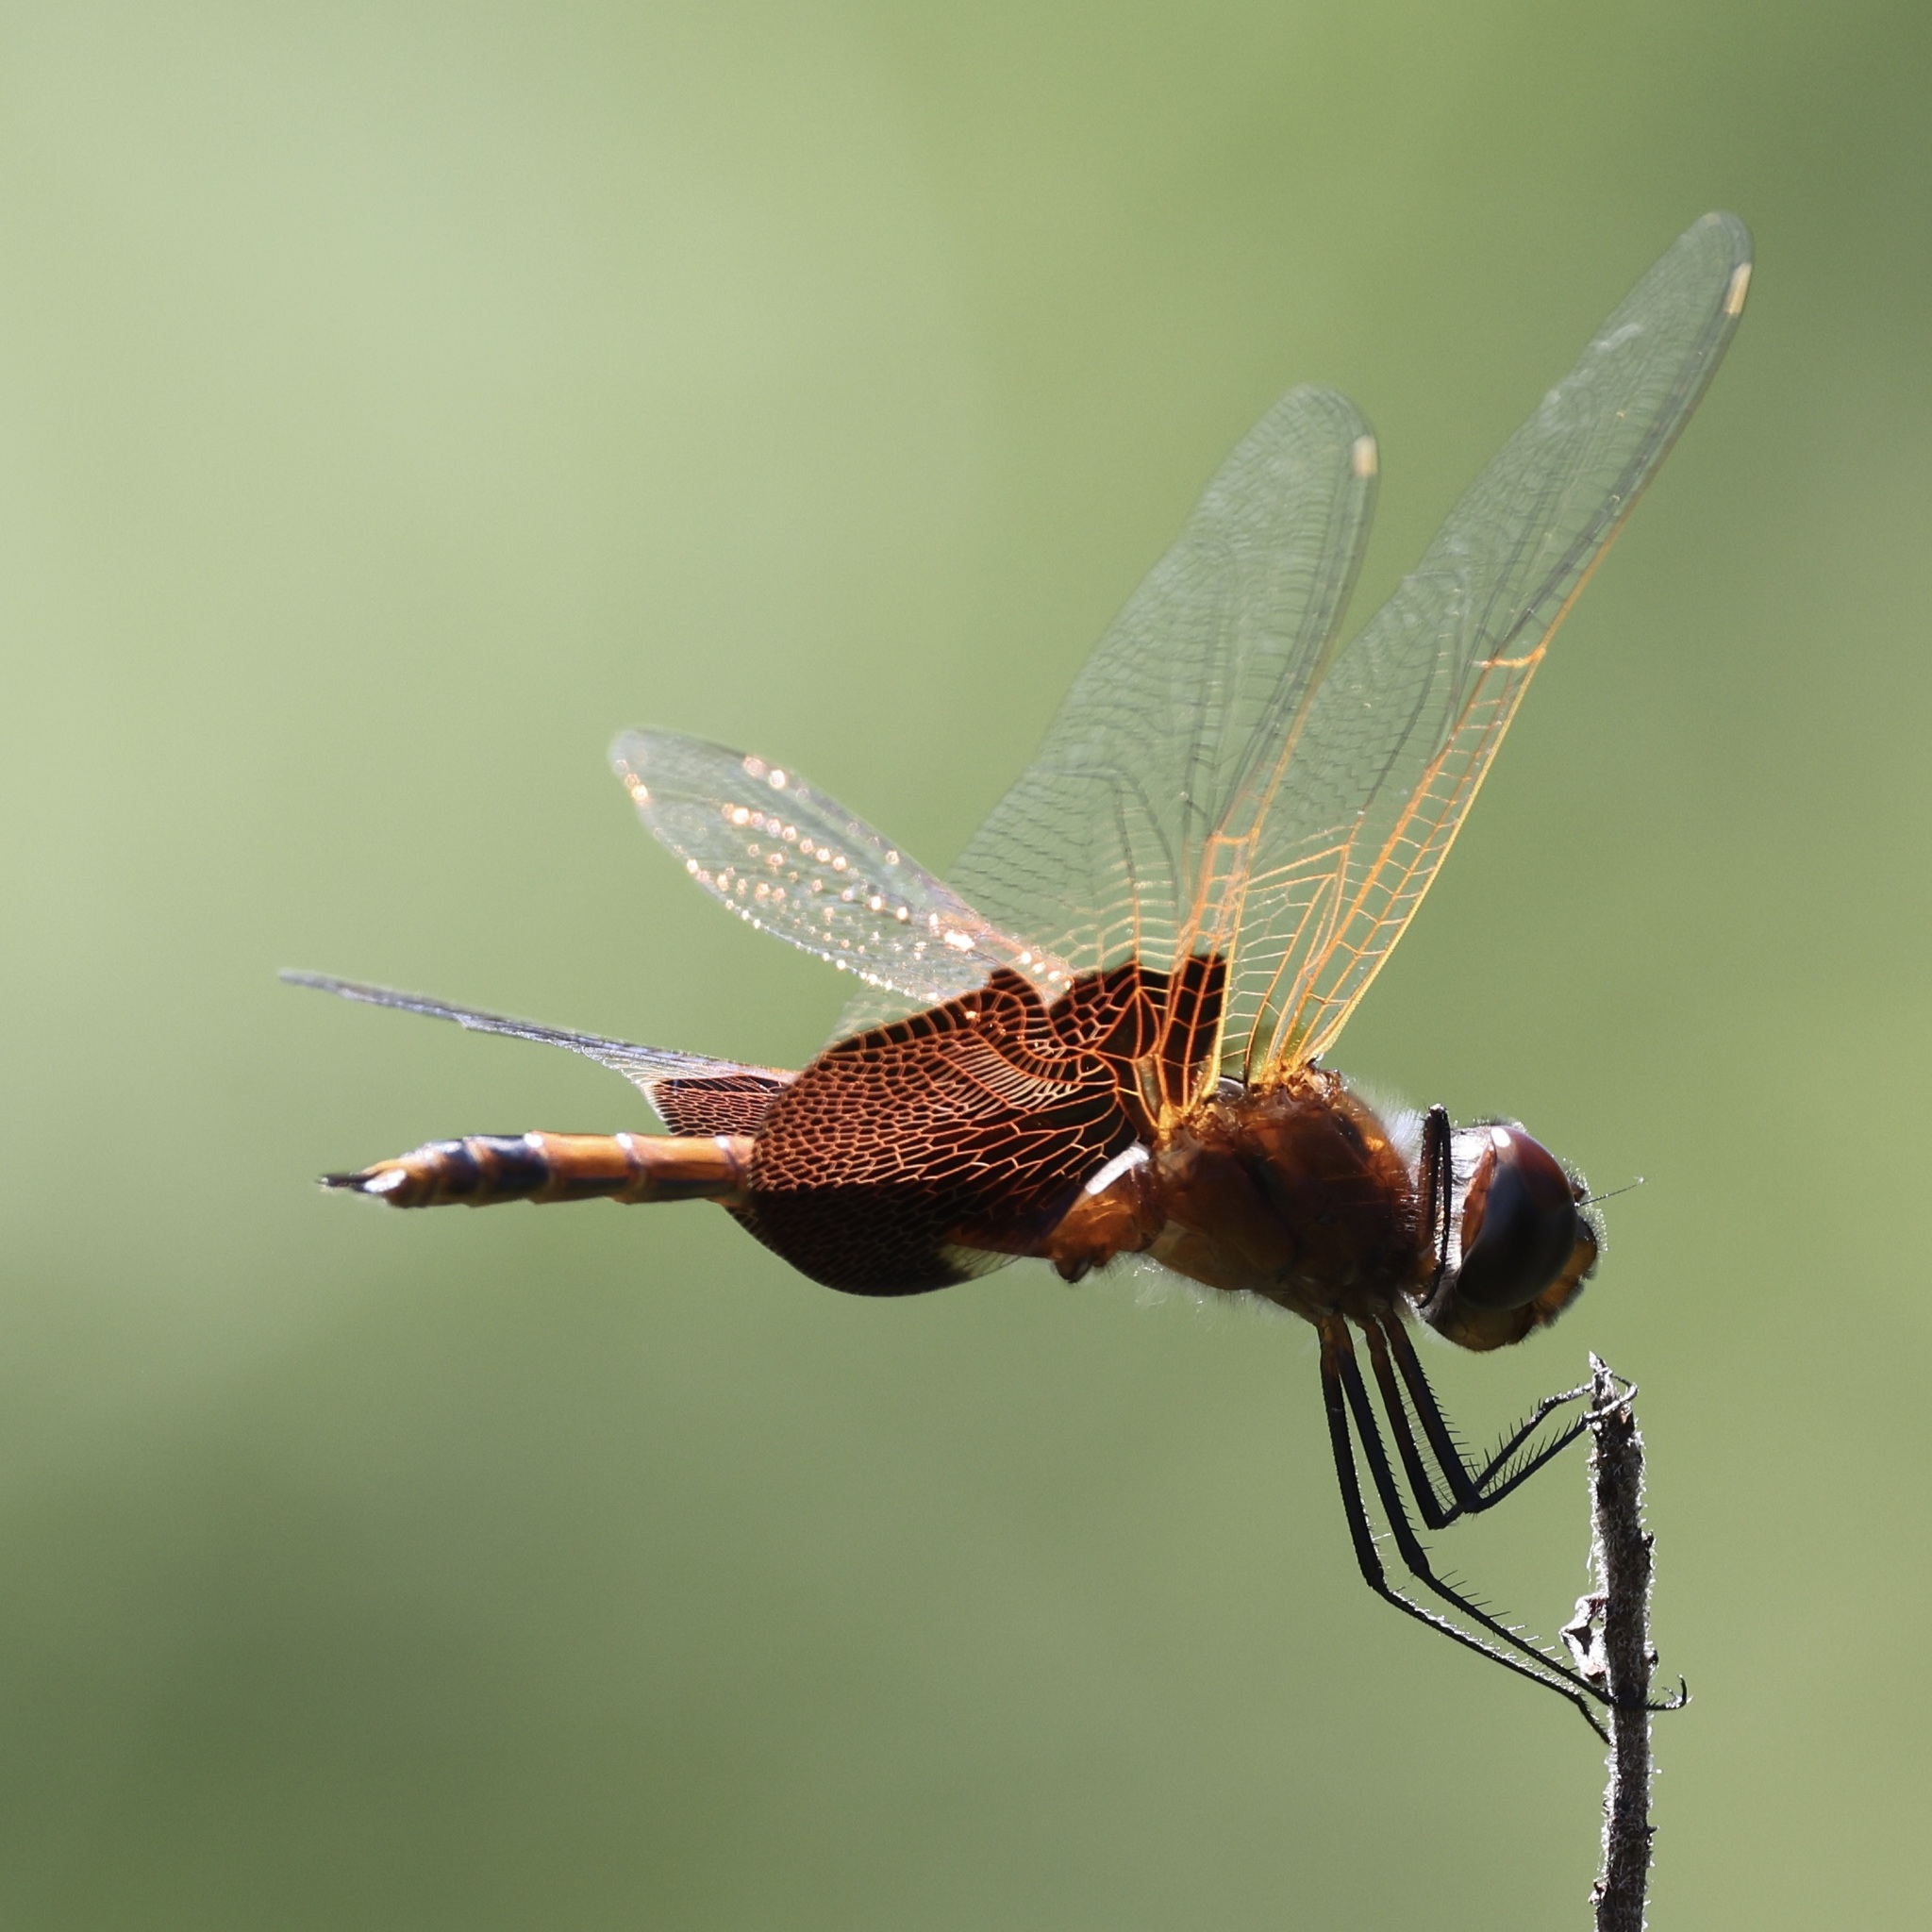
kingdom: Animalia
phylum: Arthropoda
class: Insecta
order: Odonata
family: Libellulidae
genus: Tramea
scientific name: Tramea carolina
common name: Carolina saddlebags
